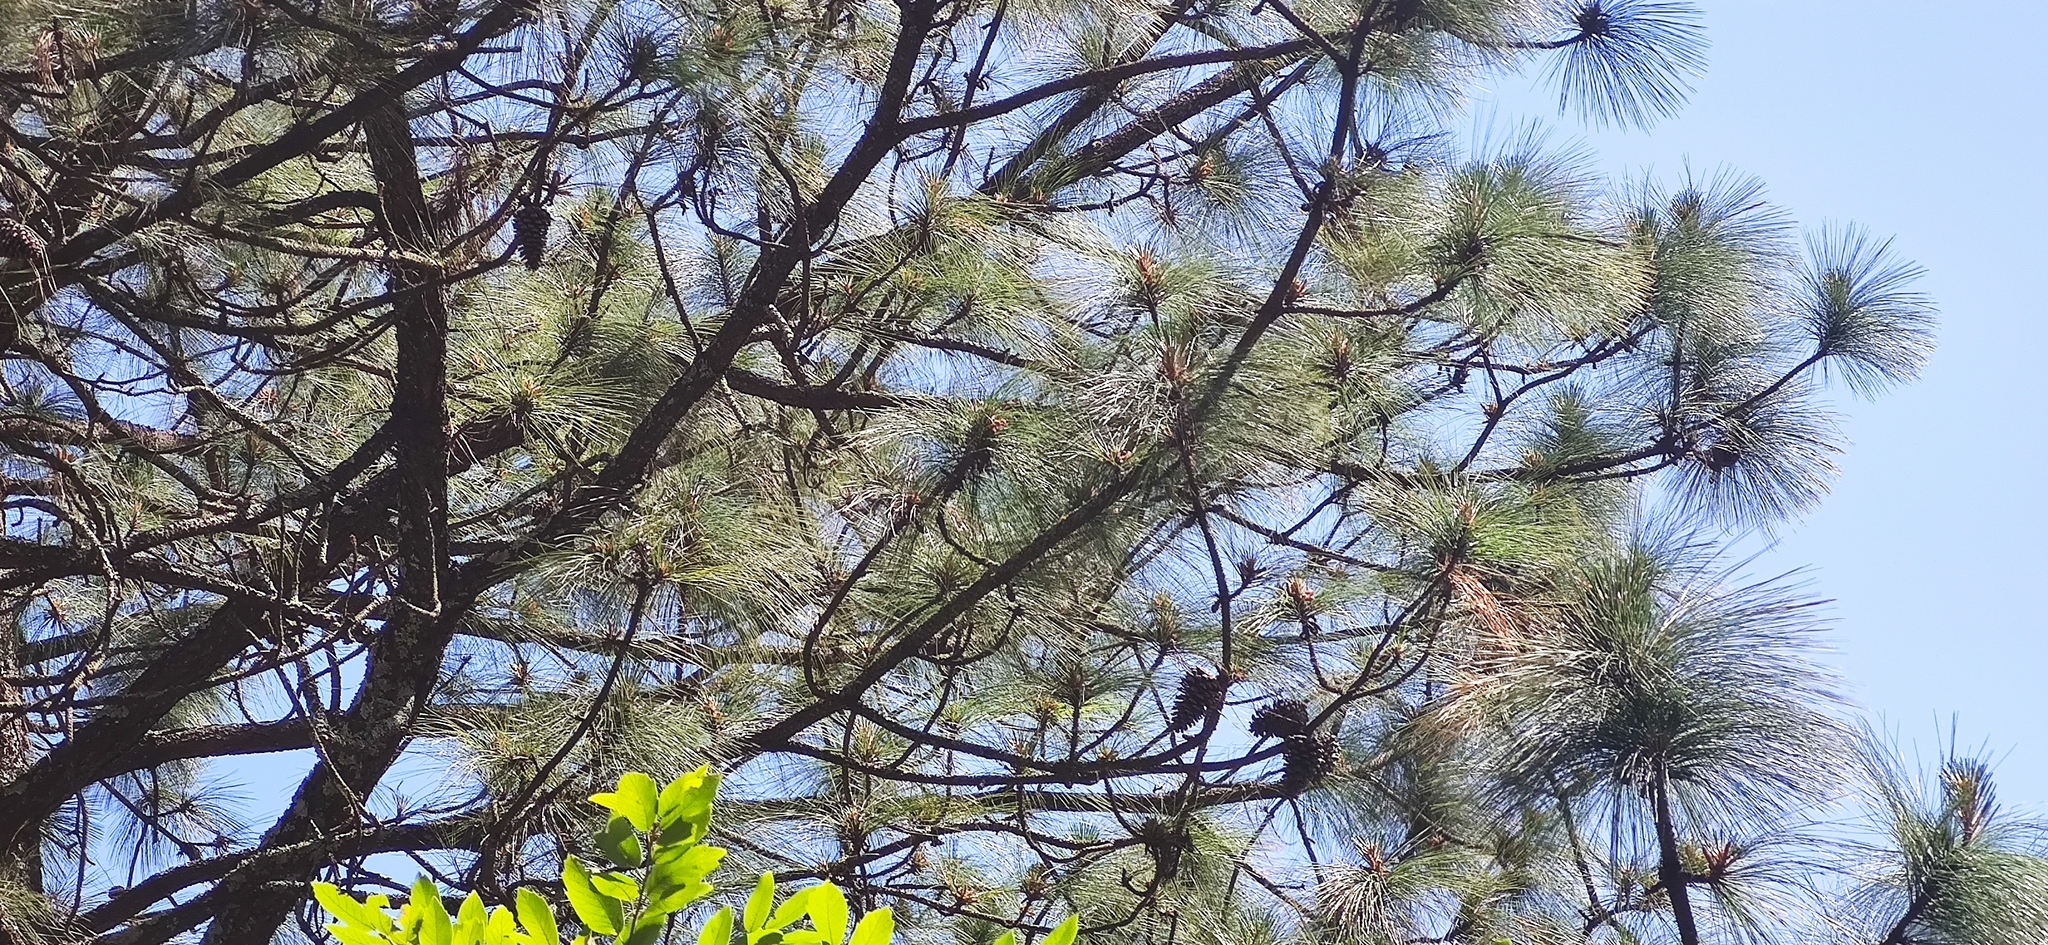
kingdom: Plantae
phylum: Tracheophyta
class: Pinopsida
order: Pinales
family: Pinaceae
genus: Pinus
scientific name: Pinus pseudostrobus
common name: False weymouth pine
